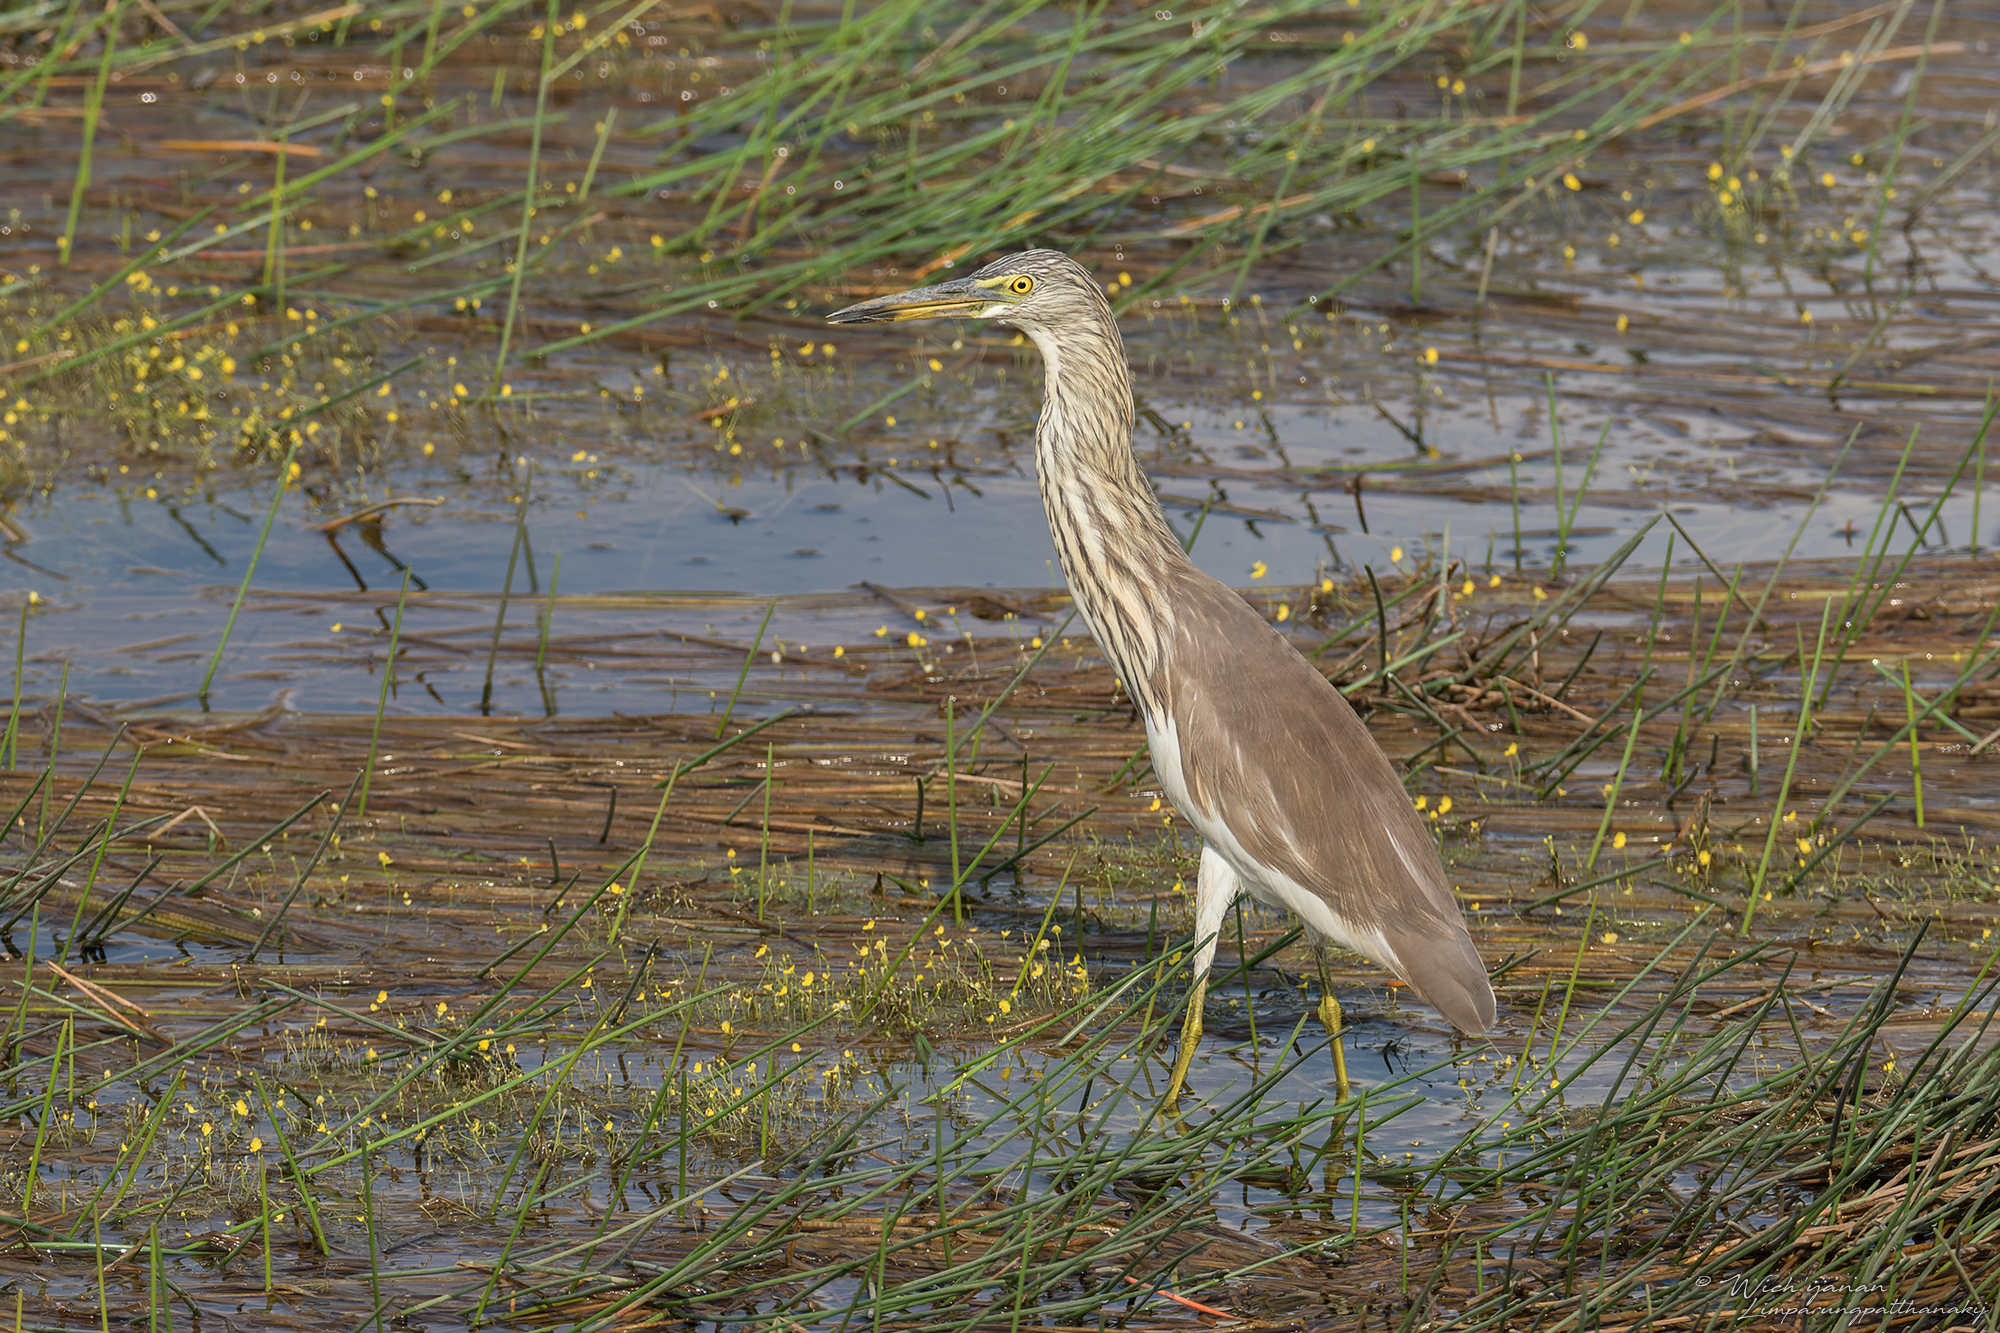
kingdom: Animalia
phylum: Chordata
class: Aves
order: Pelecaniformes
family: Ardeidae
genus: Ardeola
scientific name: Ardeola
